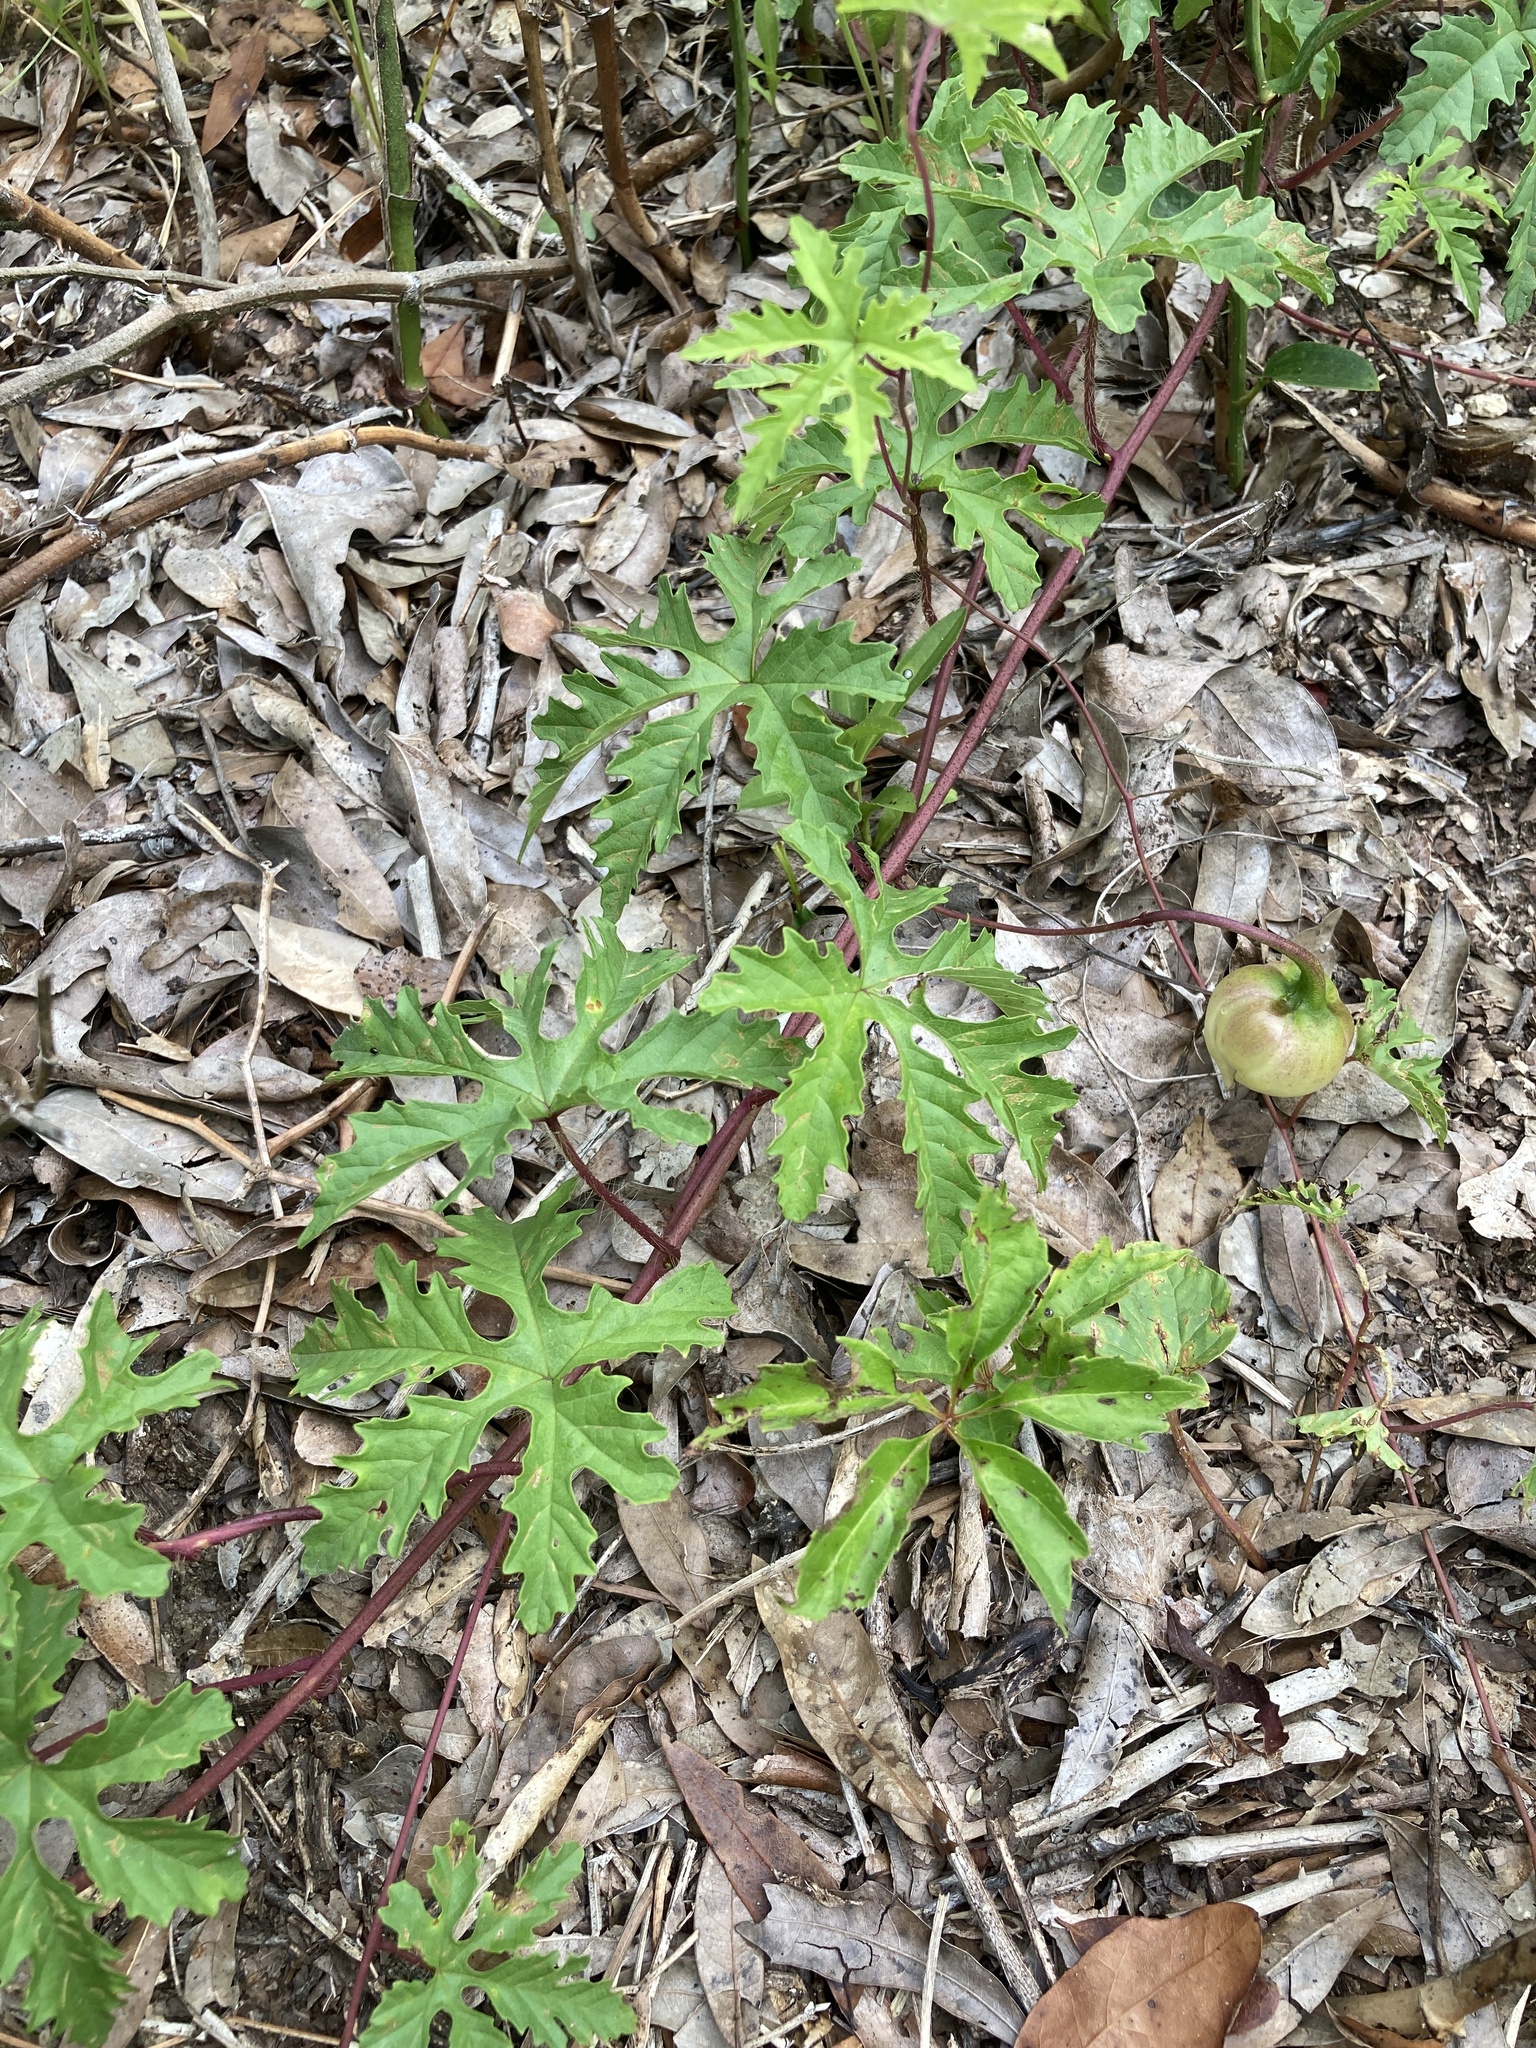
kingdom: Plantae
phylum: Tracheophyta
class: Magnoliopsida
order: Solanales
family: Convolvulaceae
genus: Distimake
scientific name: Distimake dissectus
